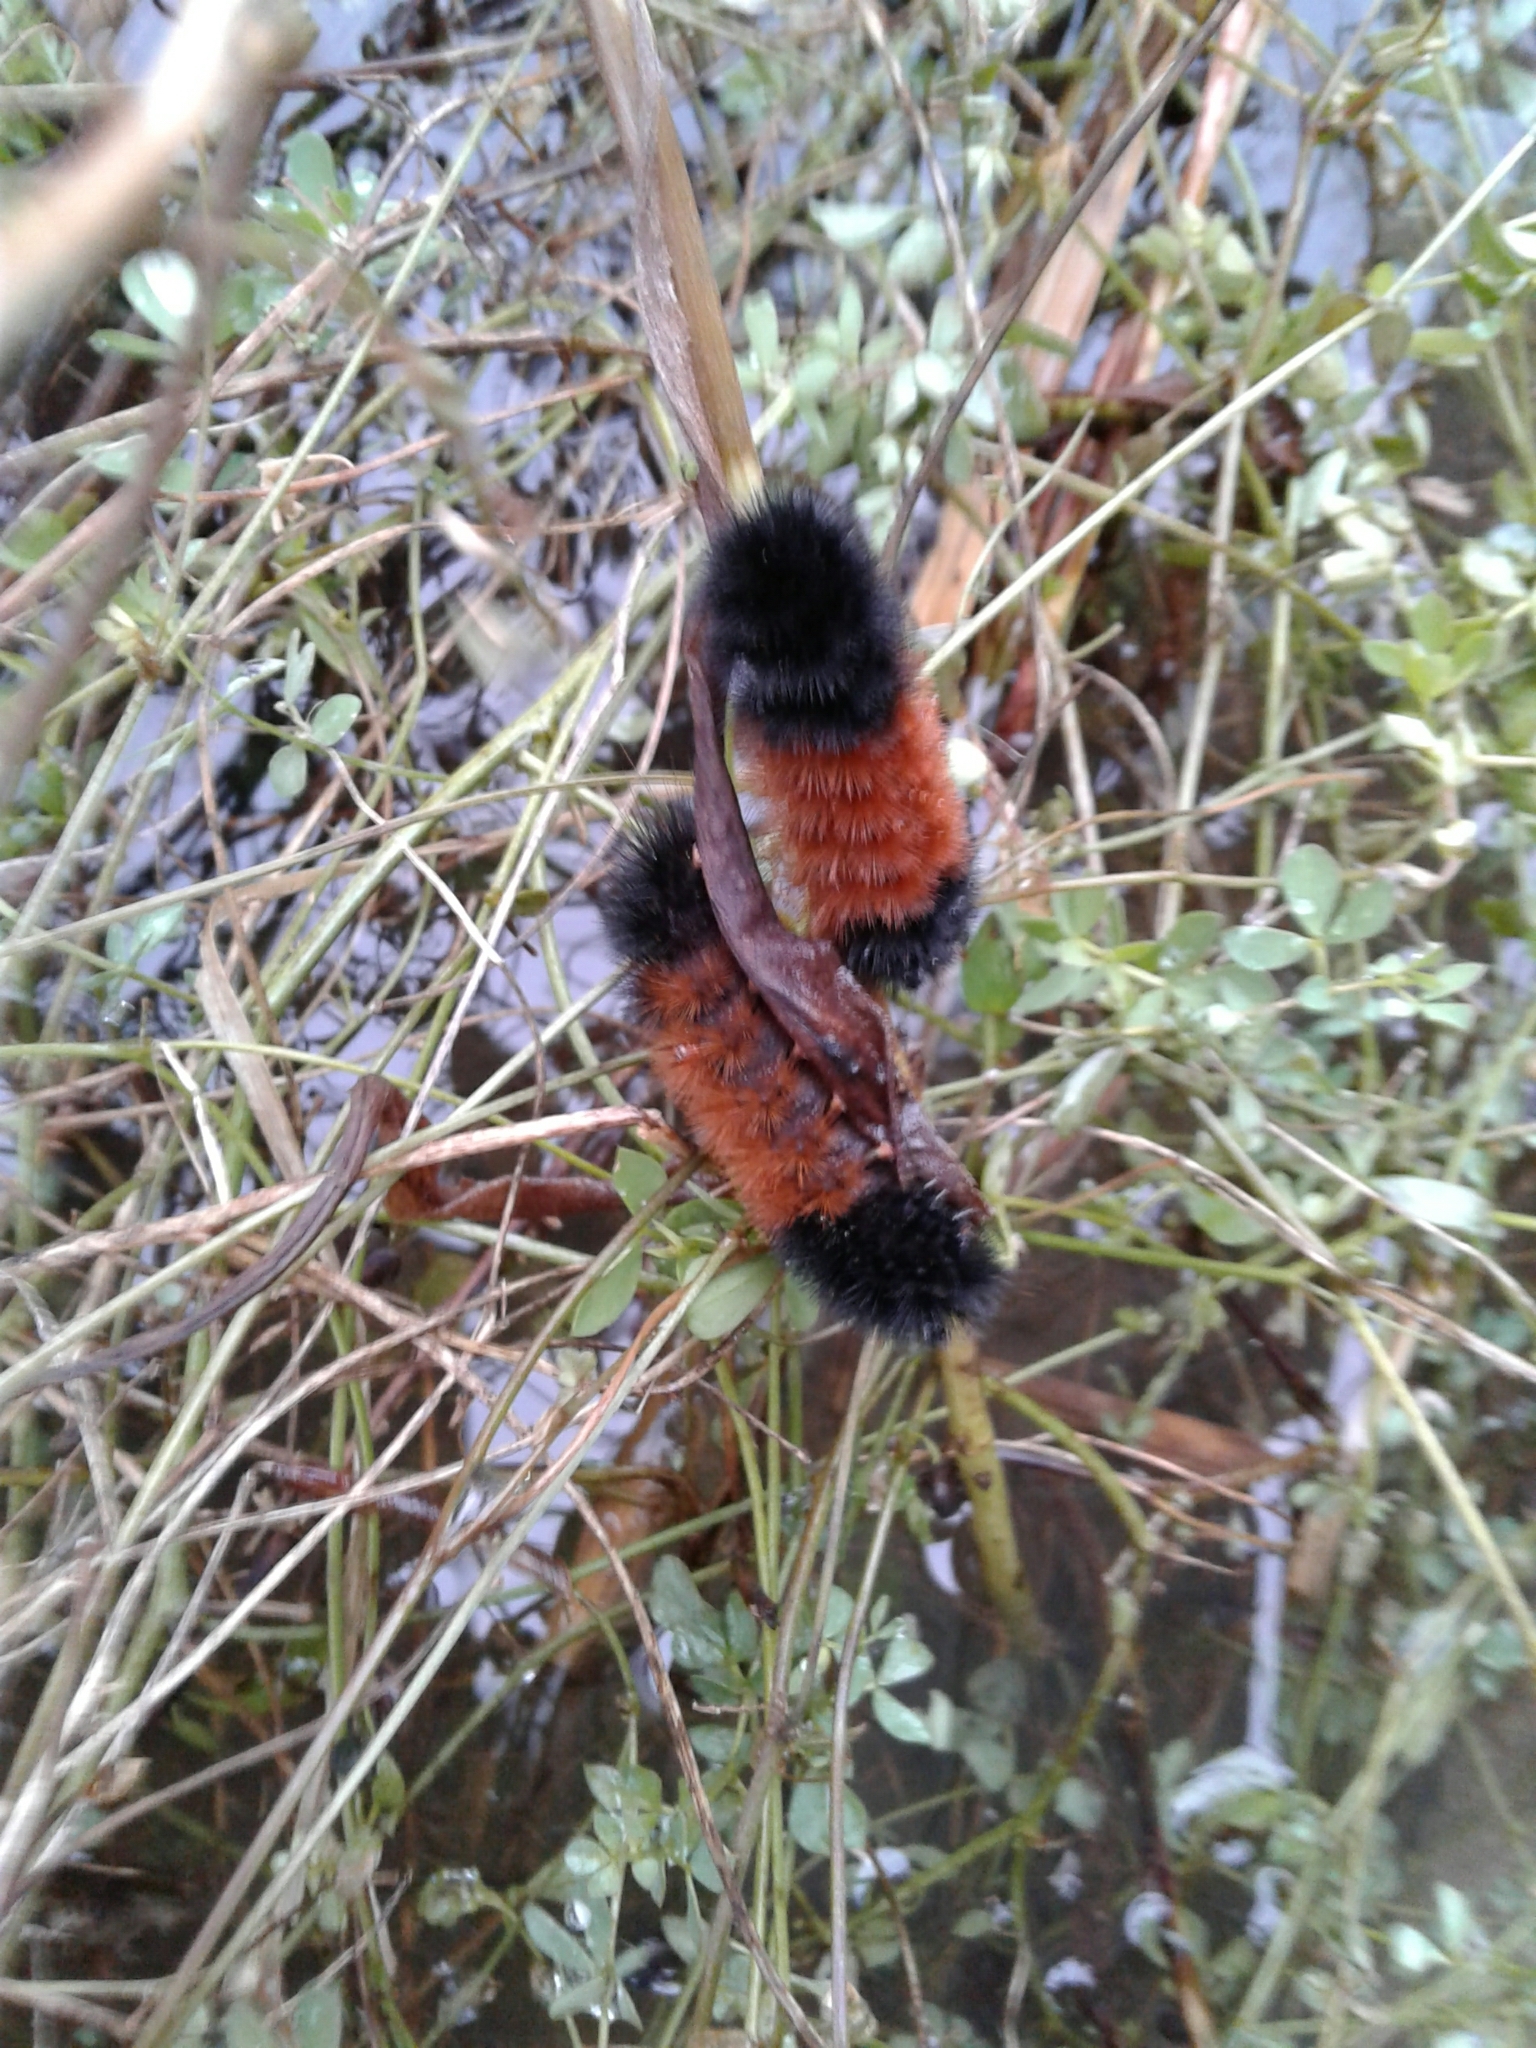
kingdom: Animalia
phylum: Arthropoda
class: Insecta
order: Lepidoptera
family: Erebidae
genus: Pyrrharctia
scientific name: Pyrrharctia isabella
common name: Isabella tiger moth
